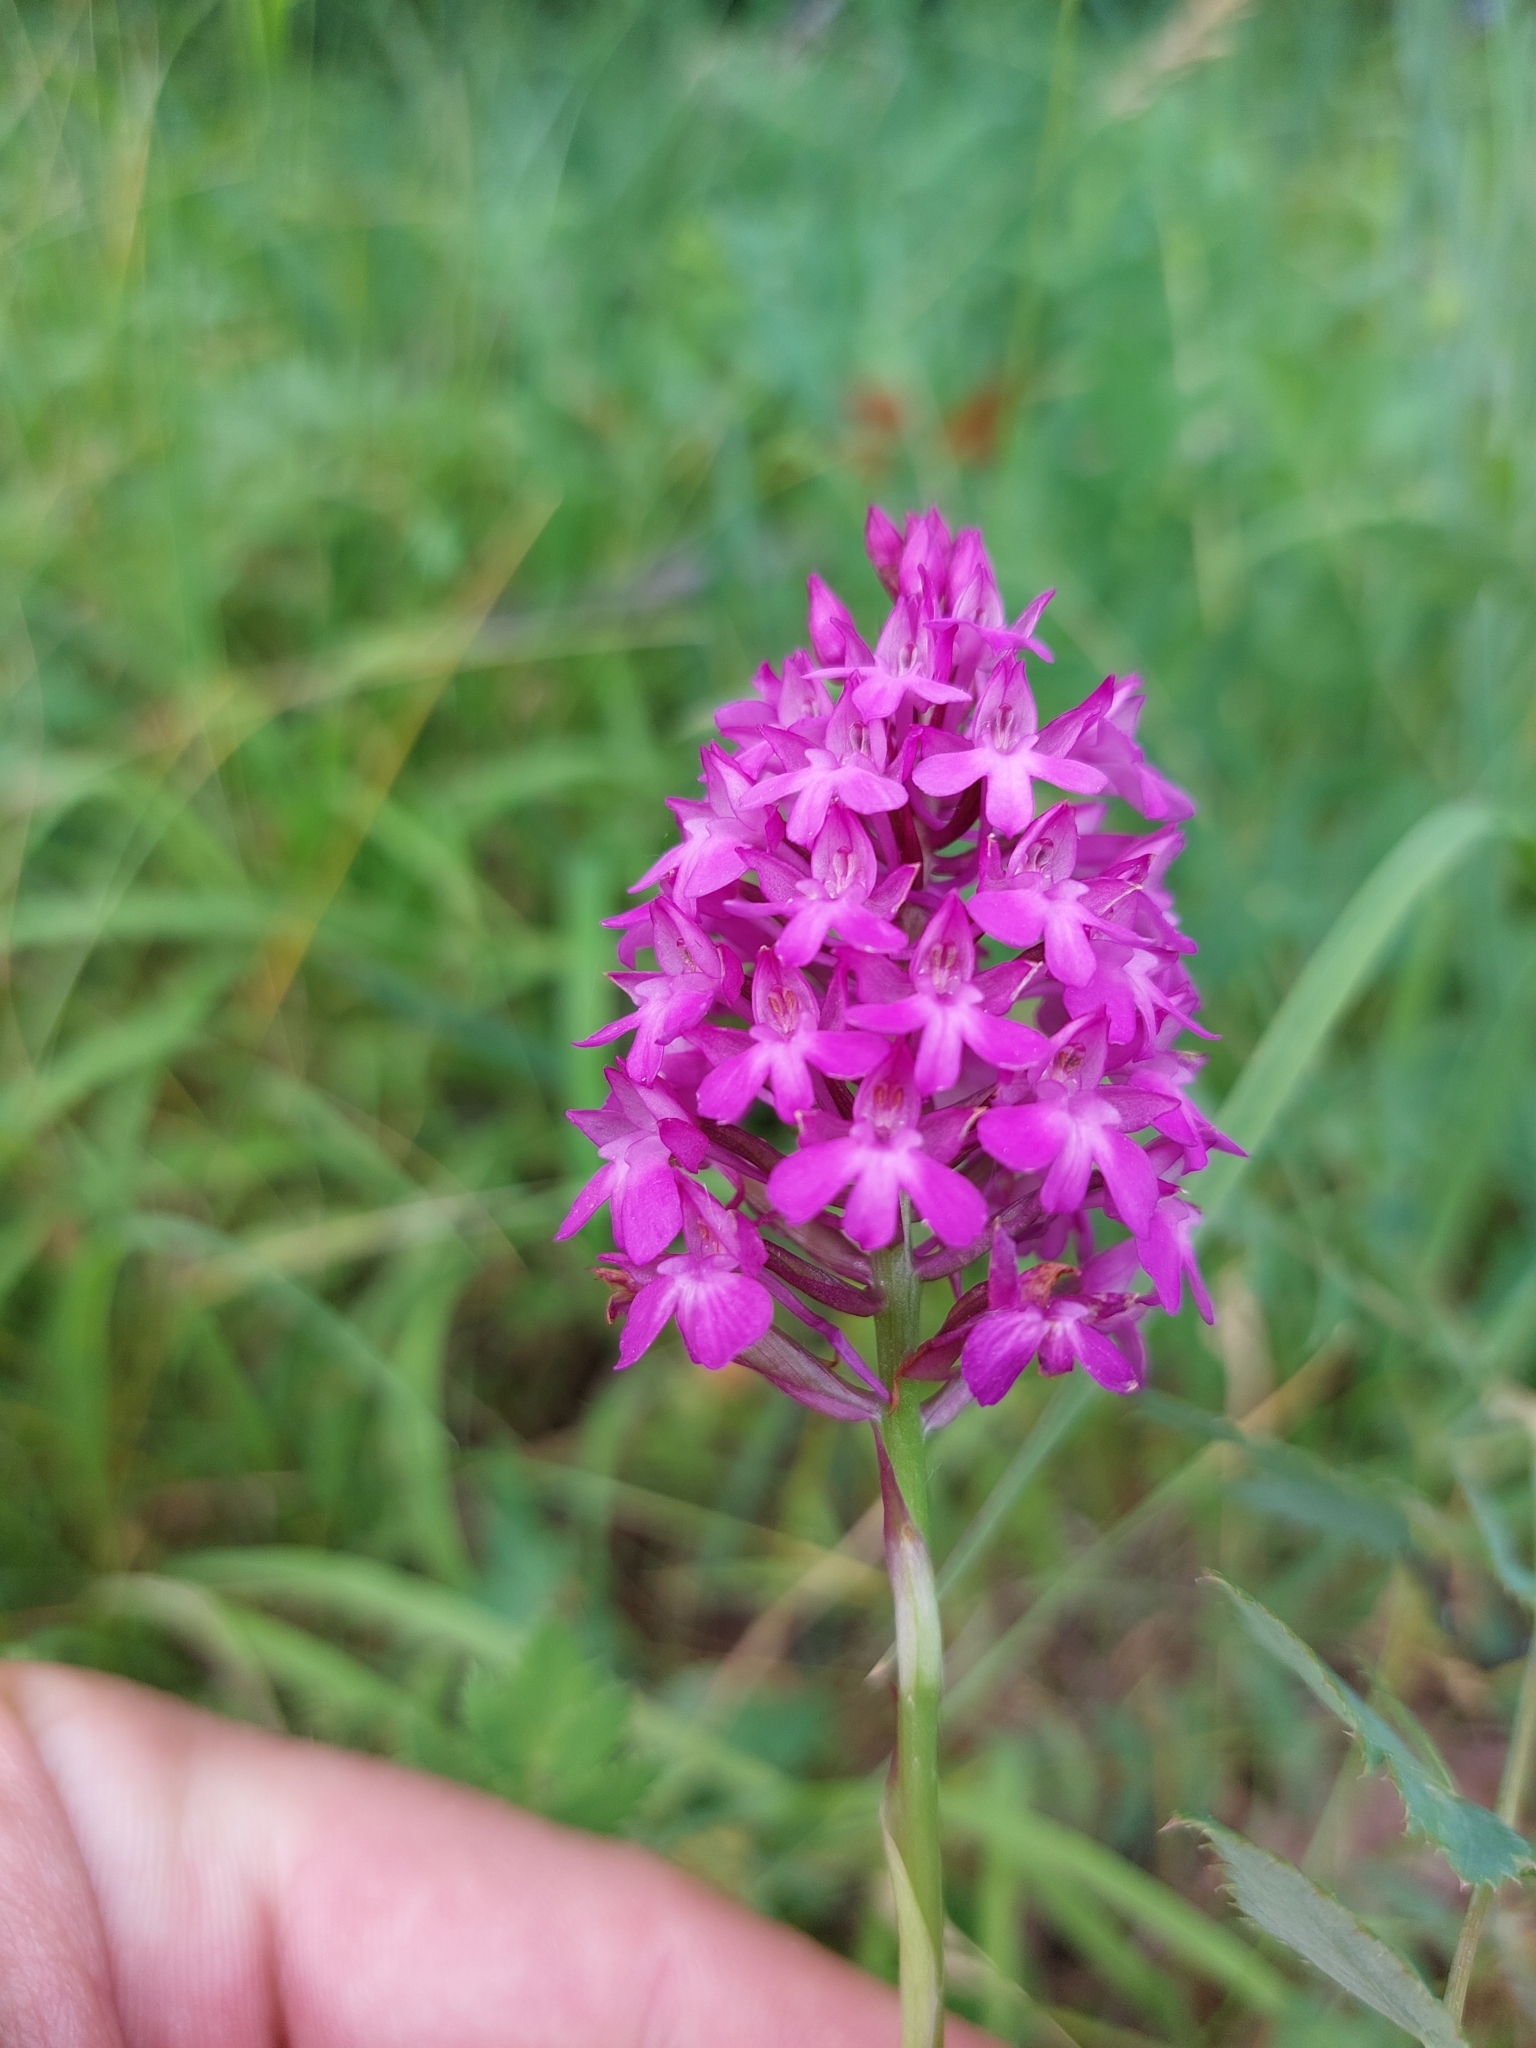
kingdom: Plantae
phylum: Tracheophyta
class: Liliopsida
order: Asparagales
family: Orchidaceae
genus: Anacamptis
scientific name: Anacamptis pyramidalis
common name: Pyramidal orchid
